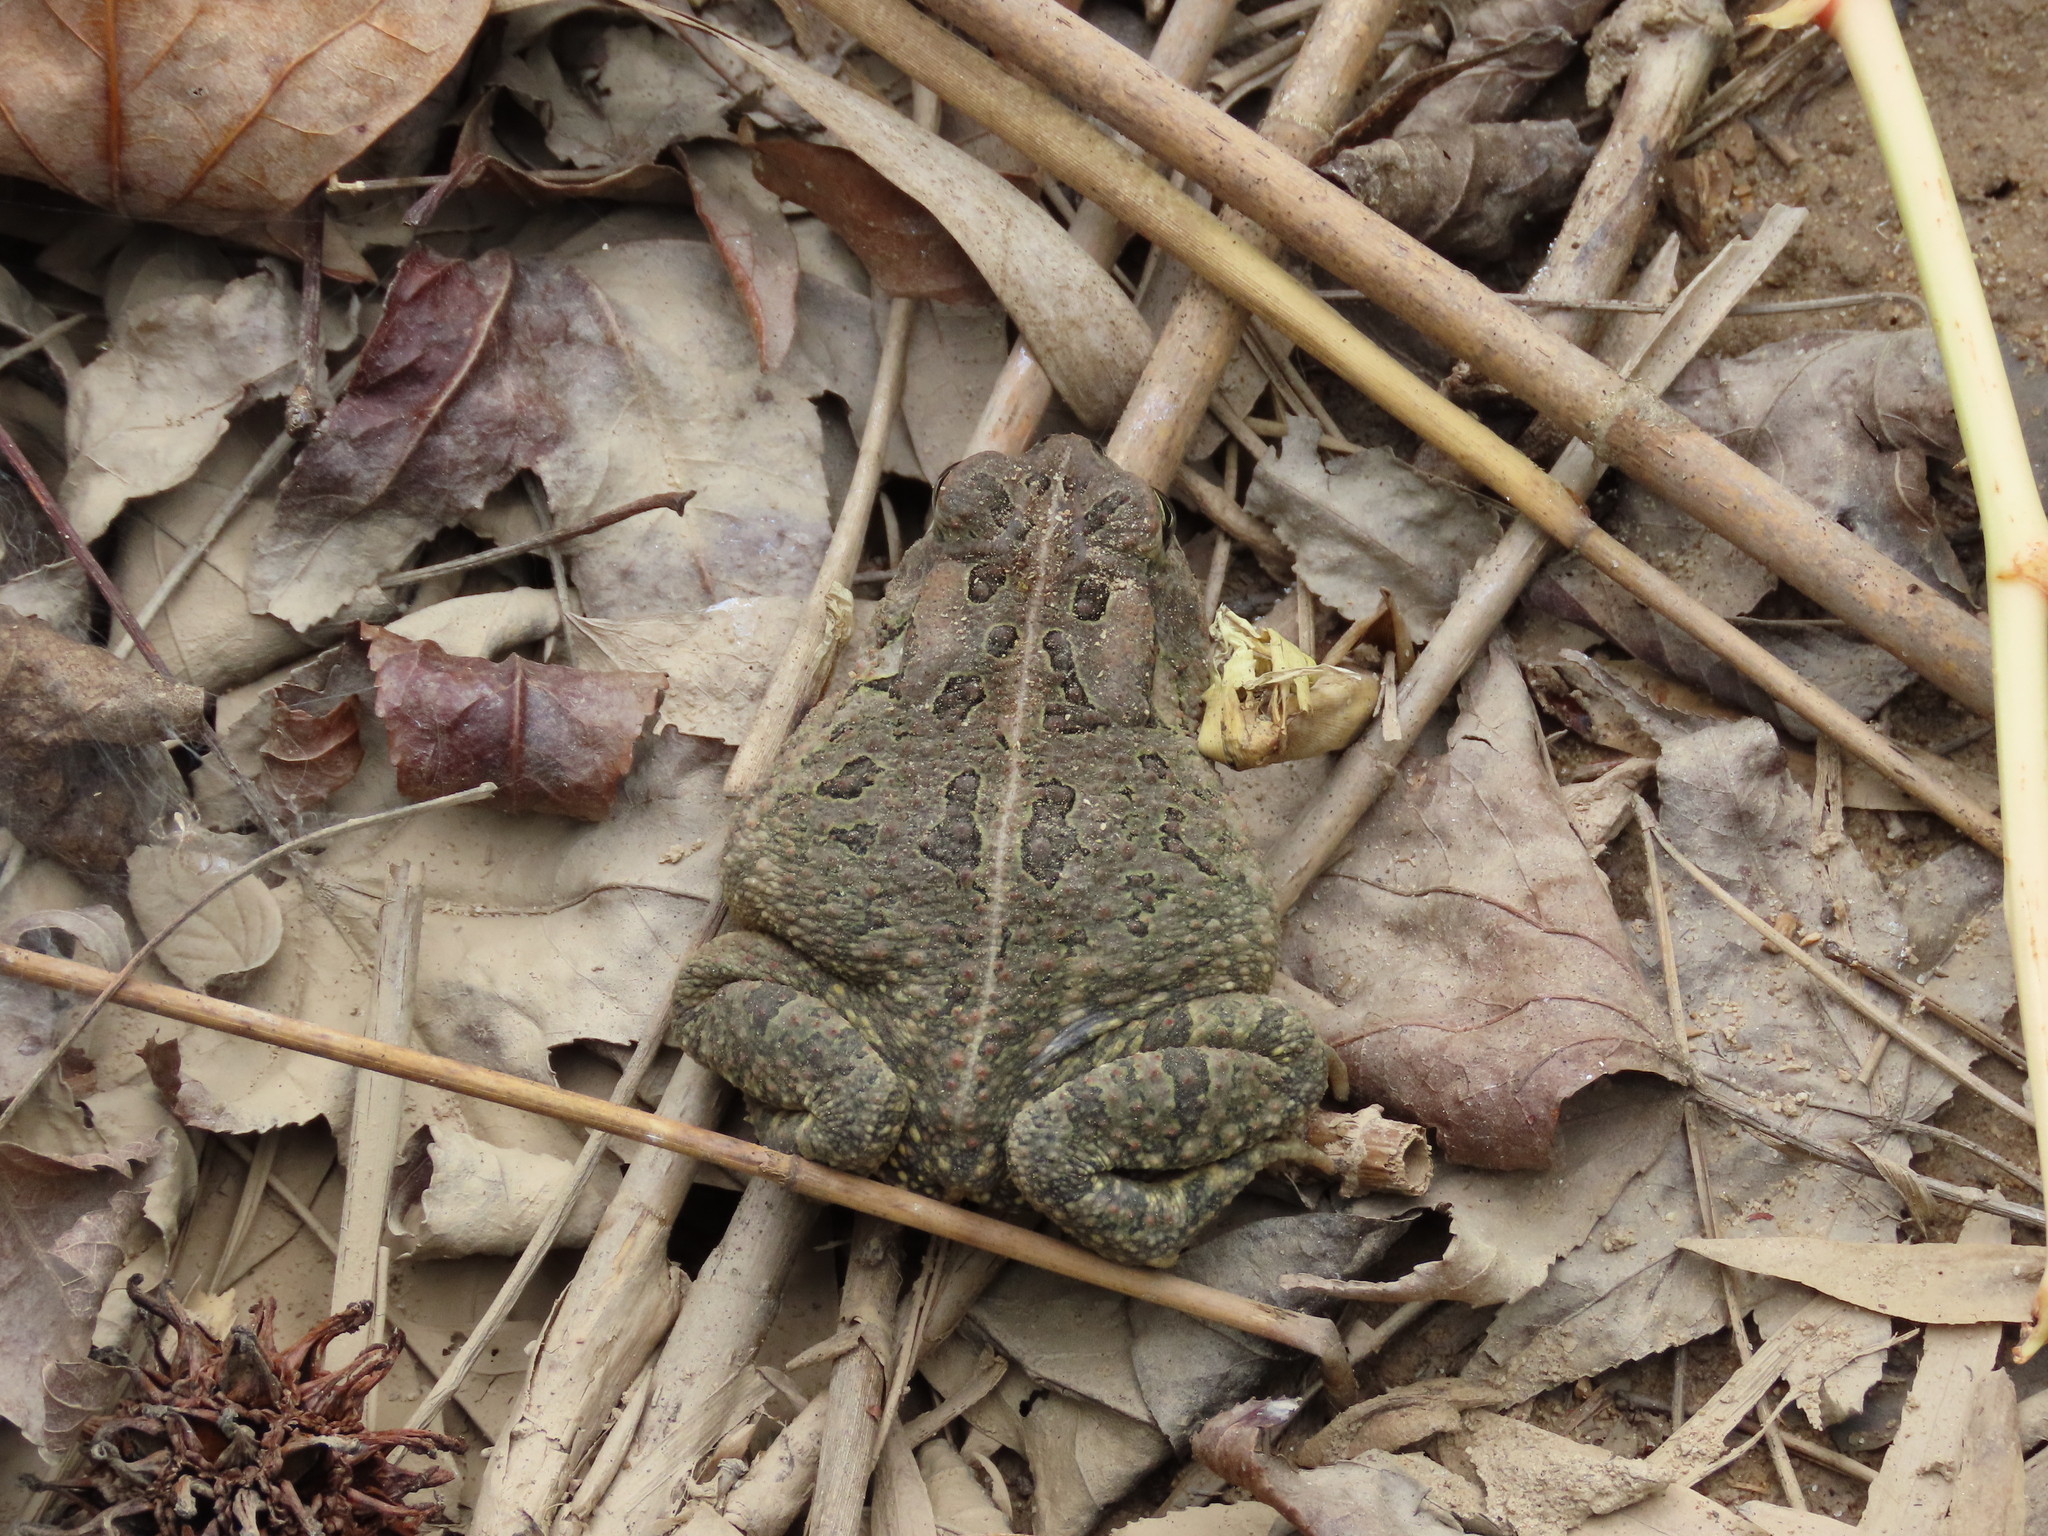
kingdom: Animalia
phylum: Chordata
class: Amphibia
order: Anura
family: Bufonidae
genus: Anaxyrus
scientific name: Anaxyrus fowleri
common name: Fowler's toad
